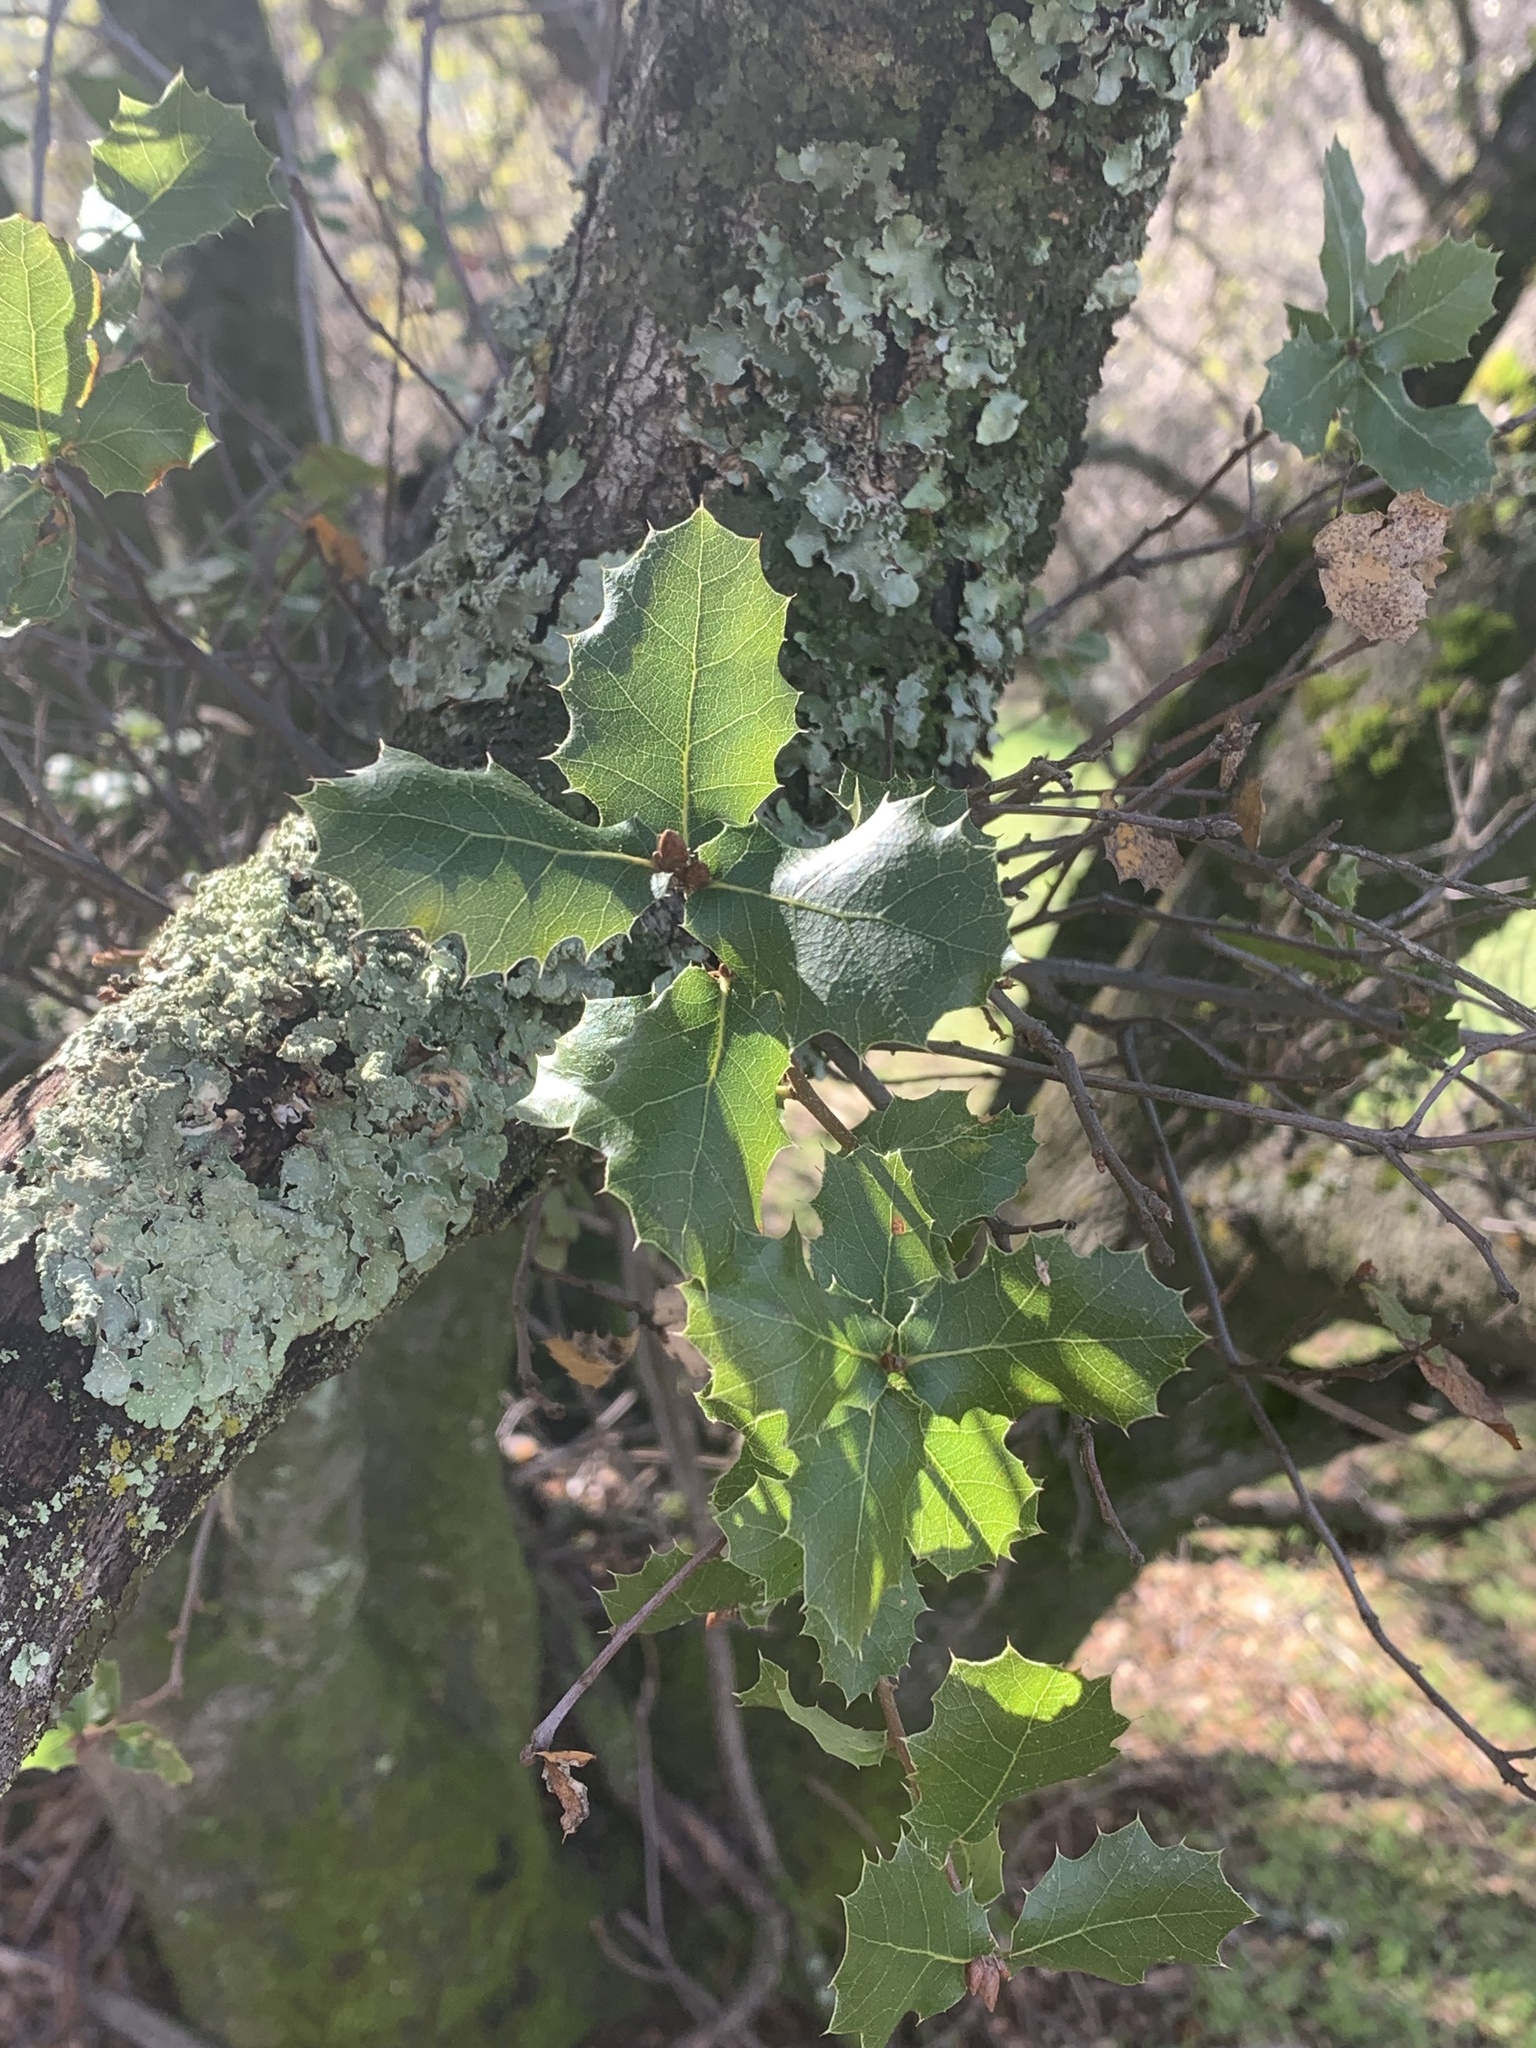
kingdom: Plantae
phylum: Tracheophyta
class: Magnoliopsida
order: Fagales
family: Fagaceae
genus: Quercus
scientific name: Quercus wislizeni
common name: Interior live oak
